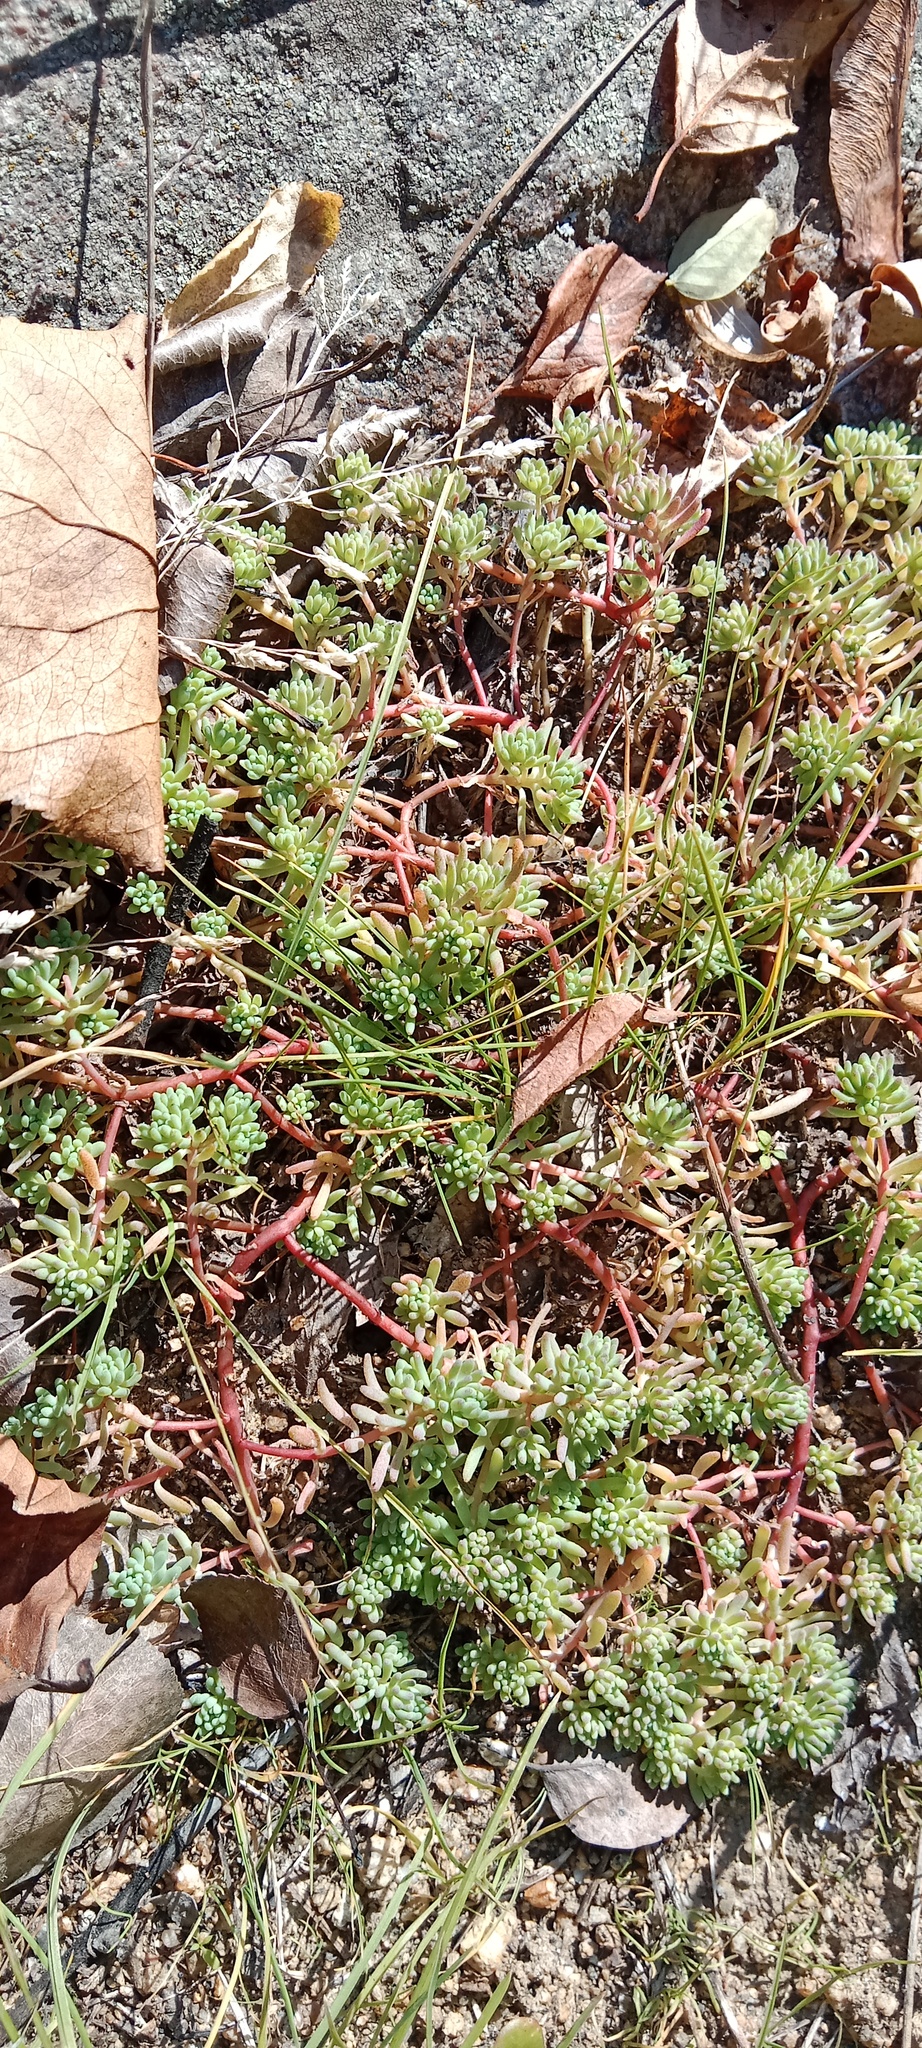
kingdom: Plantae
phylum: Tracheophyta
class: Magnoliopsida
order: Saxifragales
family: Crassulaceae
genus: Sedum
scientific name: Sedum pallidum
